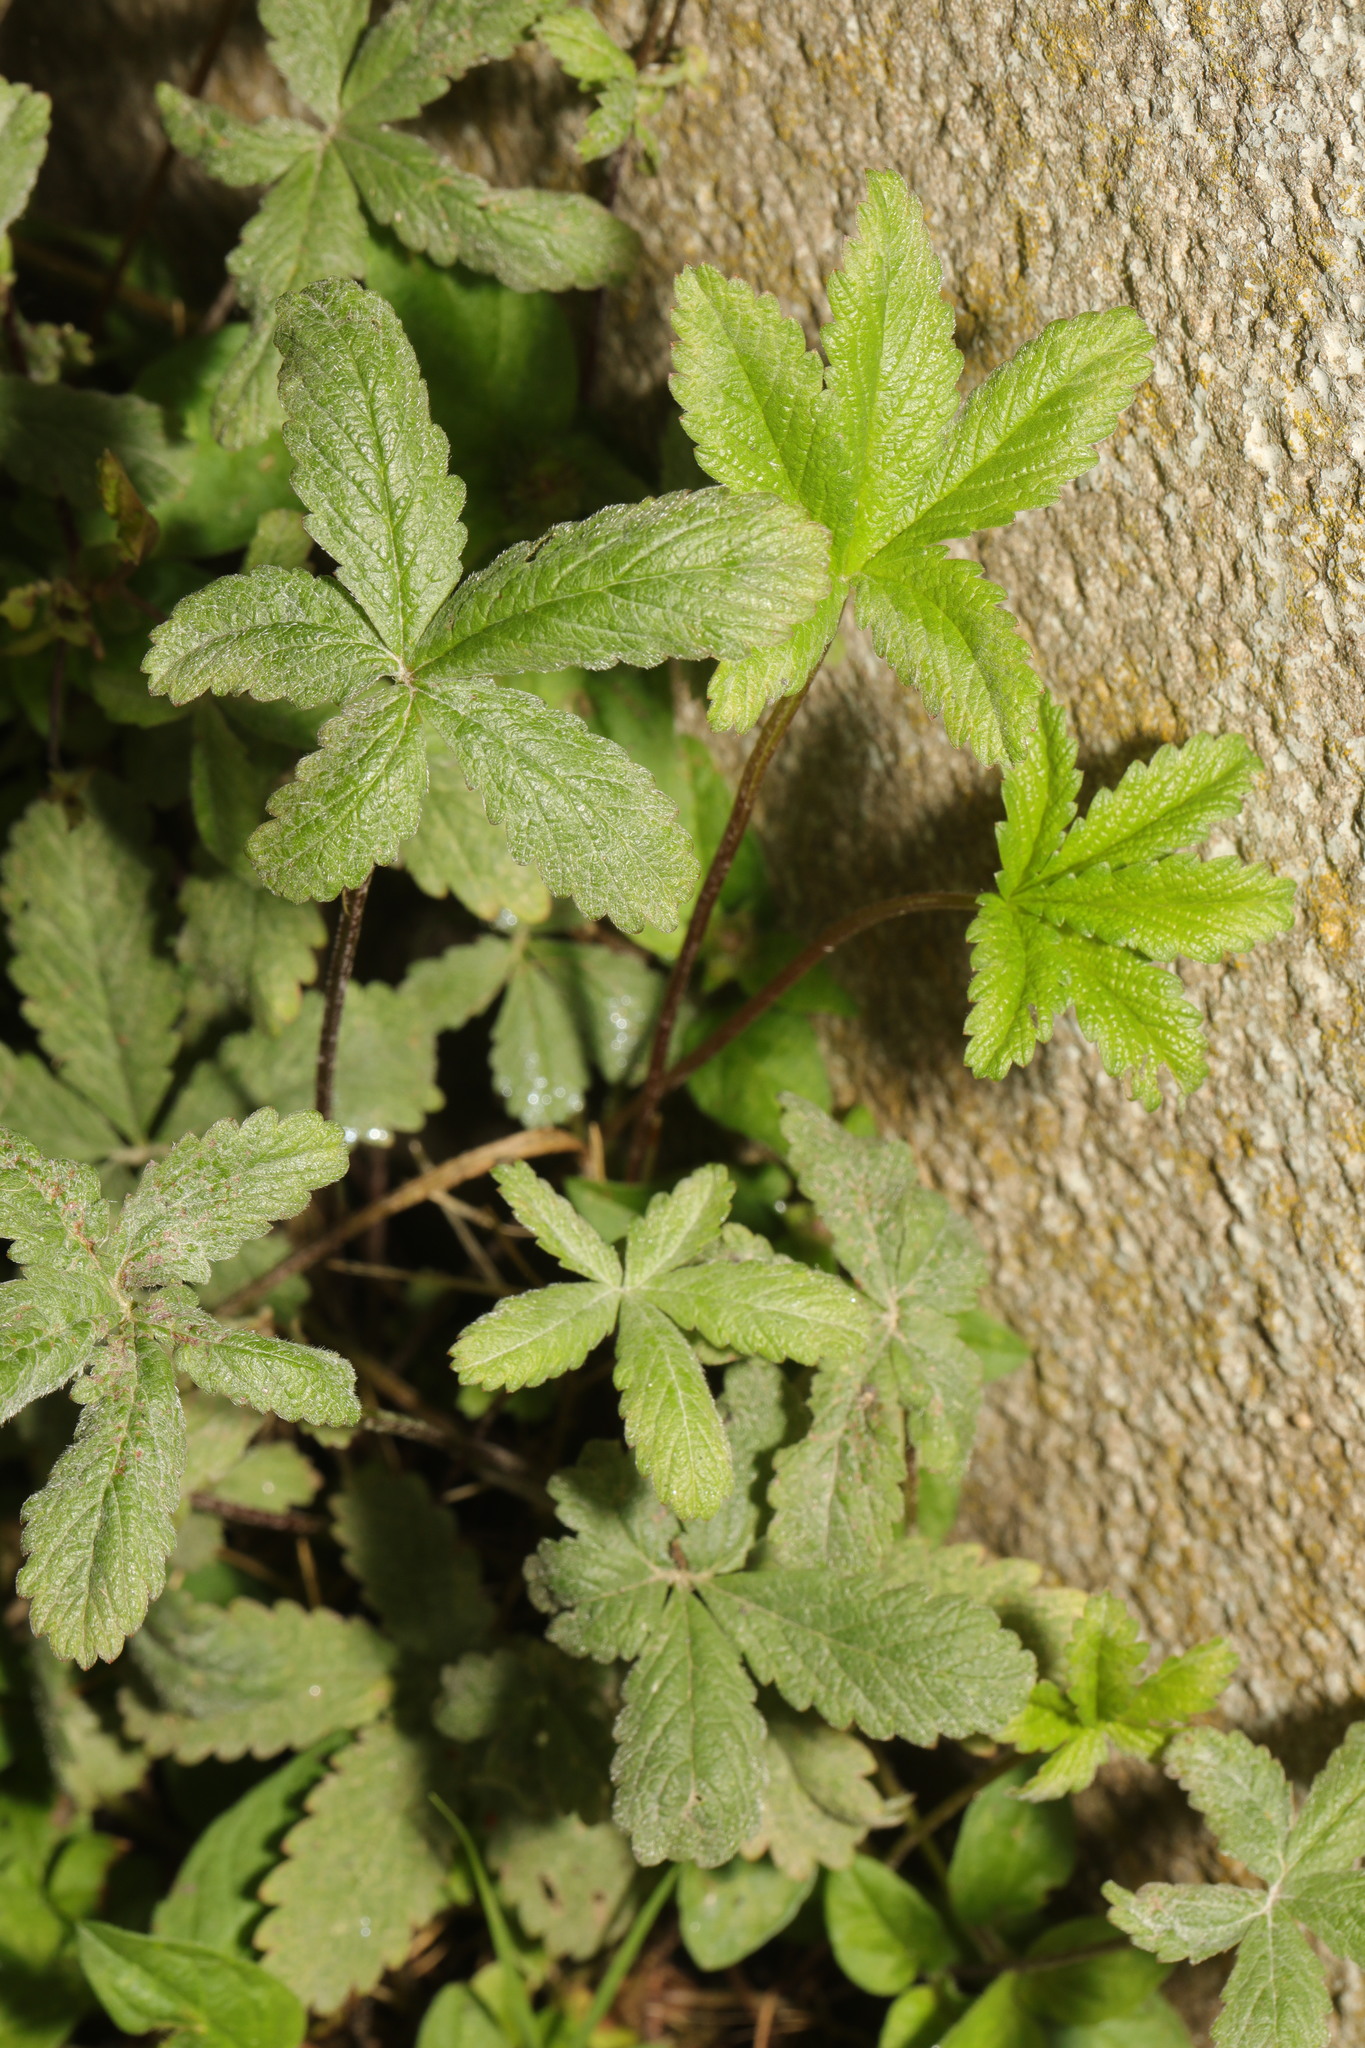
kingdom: Plantae
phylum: Tracheophyta
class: Magnoliopsida
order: Rosales
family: Rosaceae
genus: Potentilla
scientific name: Potentilla reptans
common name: Creeping cinquefoil
